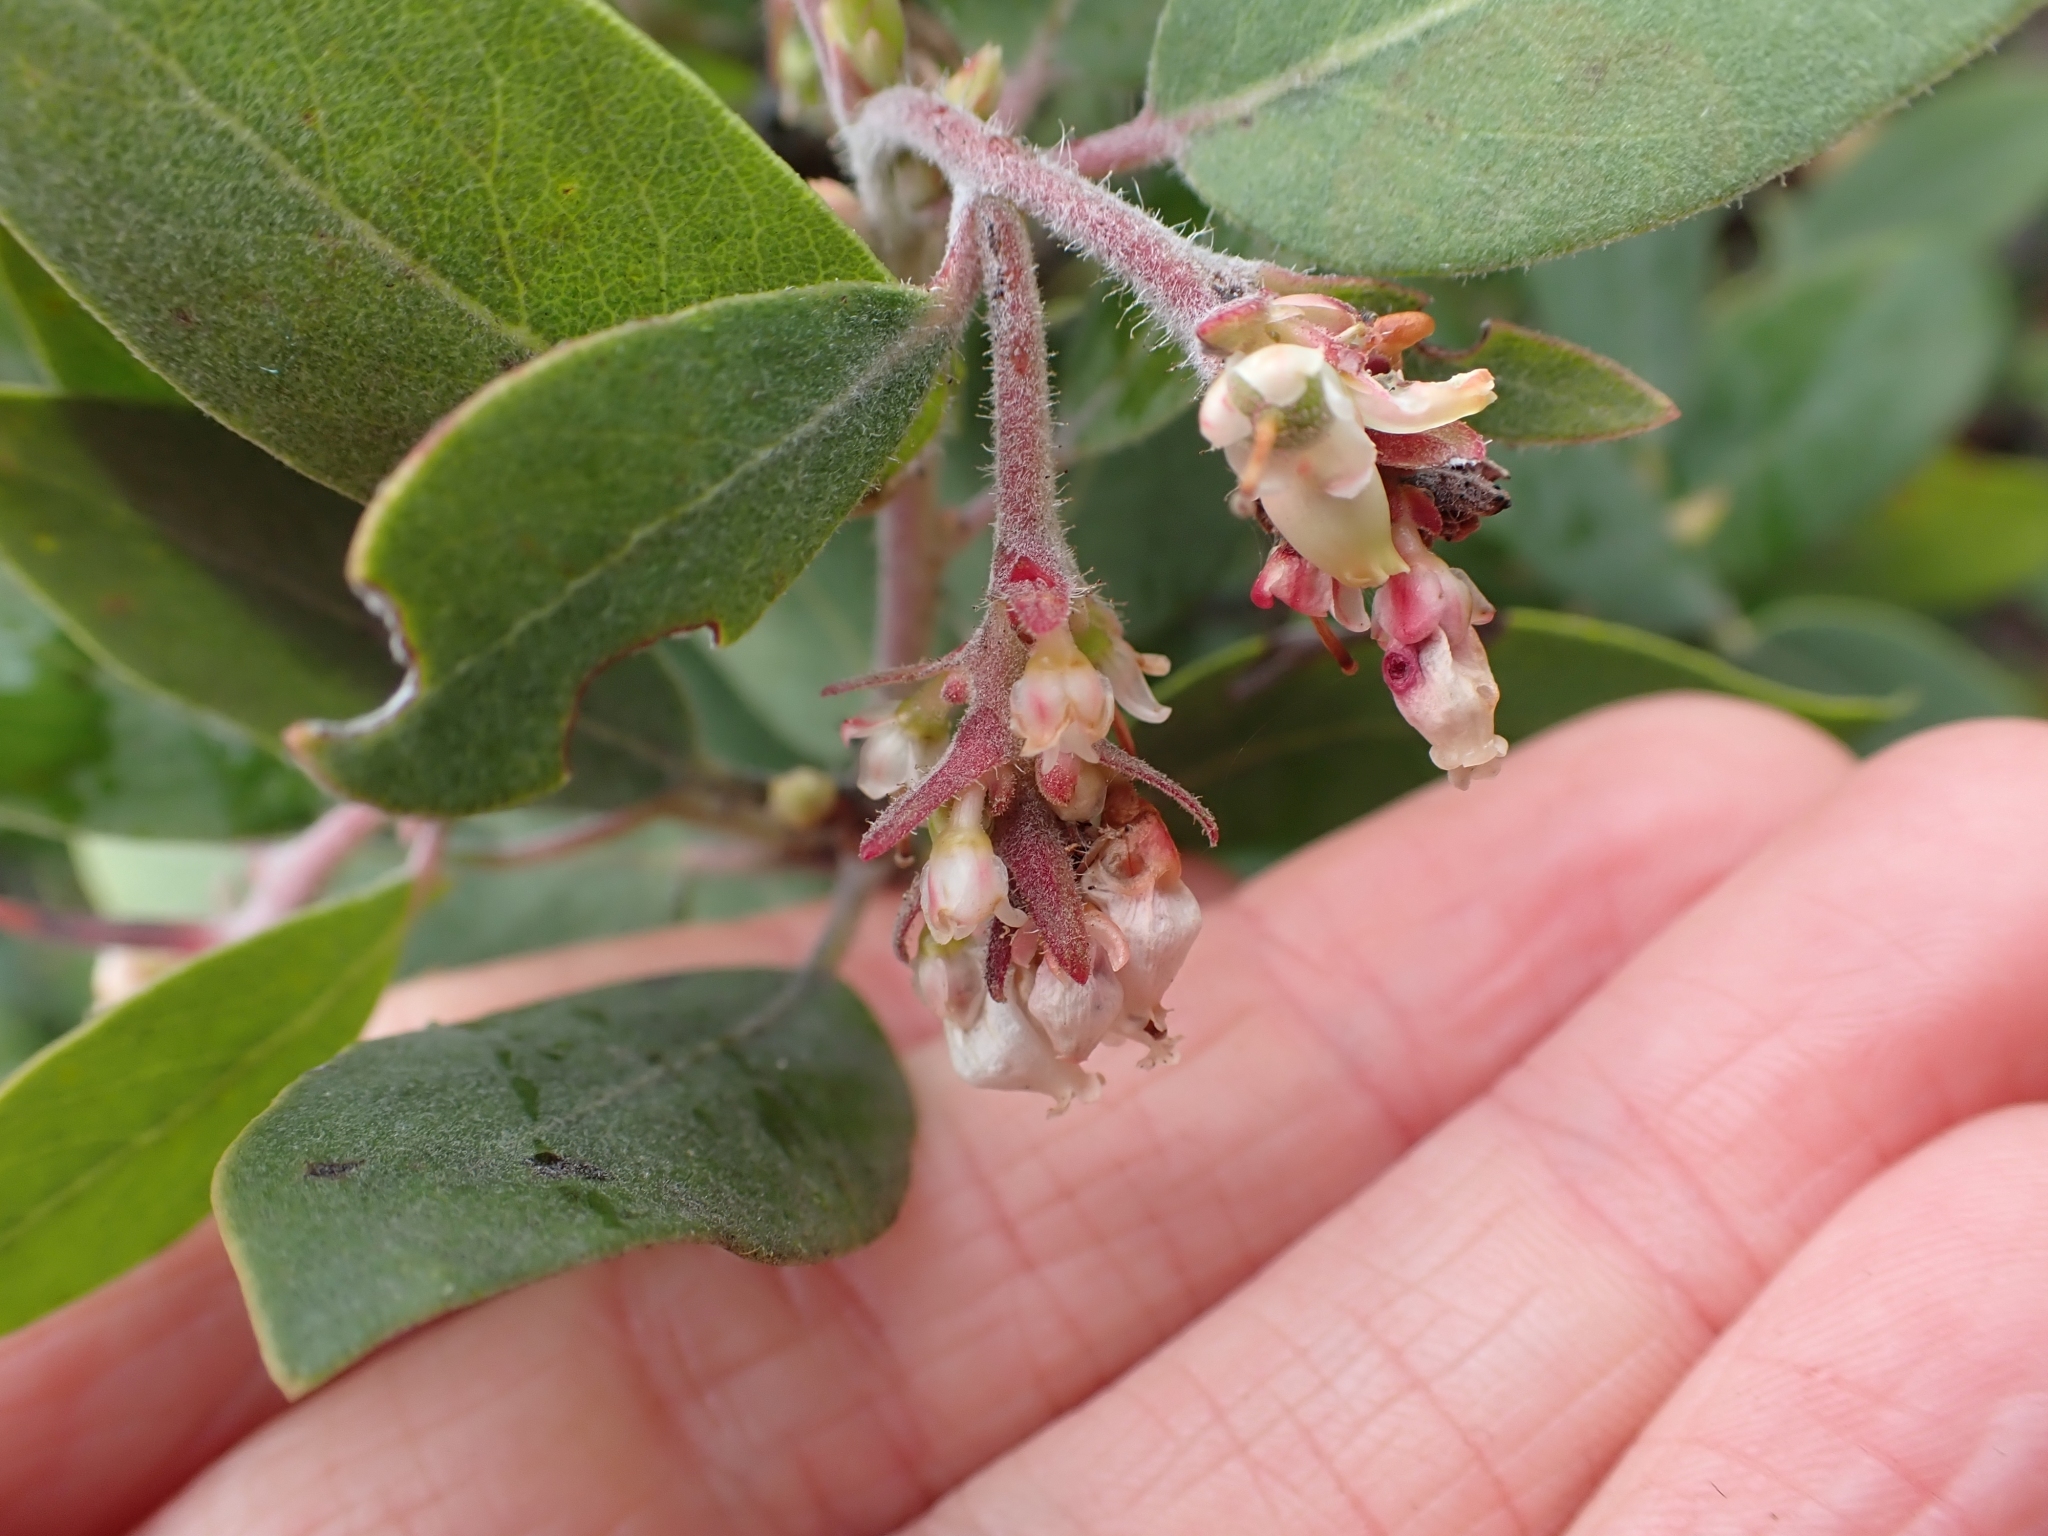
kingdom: Plantae
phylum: Tracheophyta
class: Magnoliopsida
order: Ericales
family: Ericaceae
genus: Arctostaphylos
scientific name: Arctostaphylos columbiana
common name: Bristly bearberry
